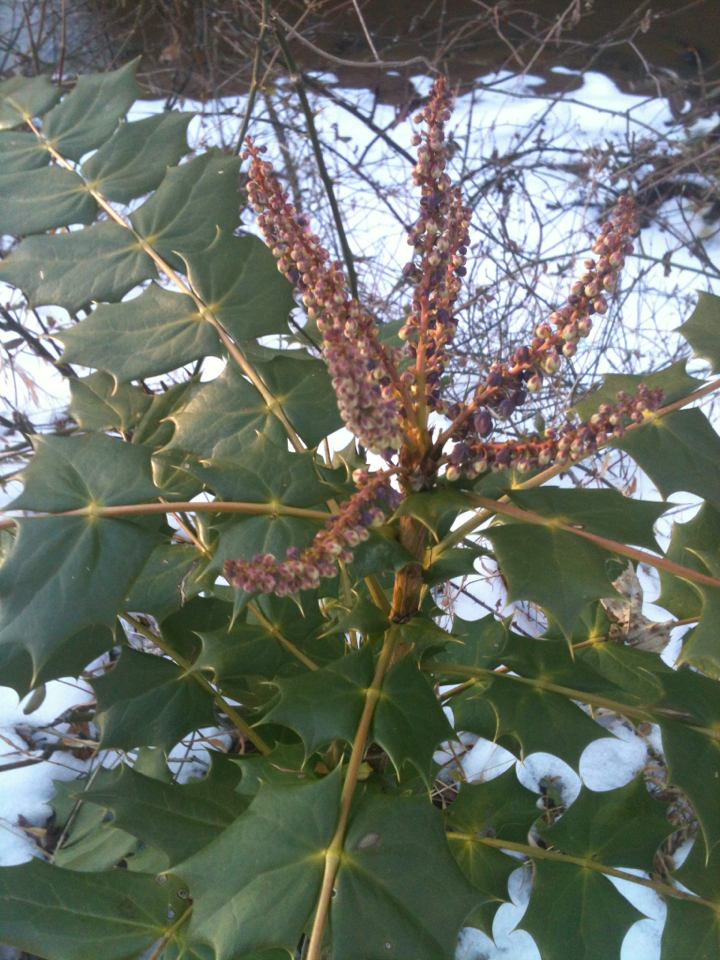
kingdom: Plantae
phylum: Tracheophyta
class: Magnoliopsida
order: Ranunculales
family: Berberidaceae
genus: Mahonia
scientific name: Mahonia bealei
